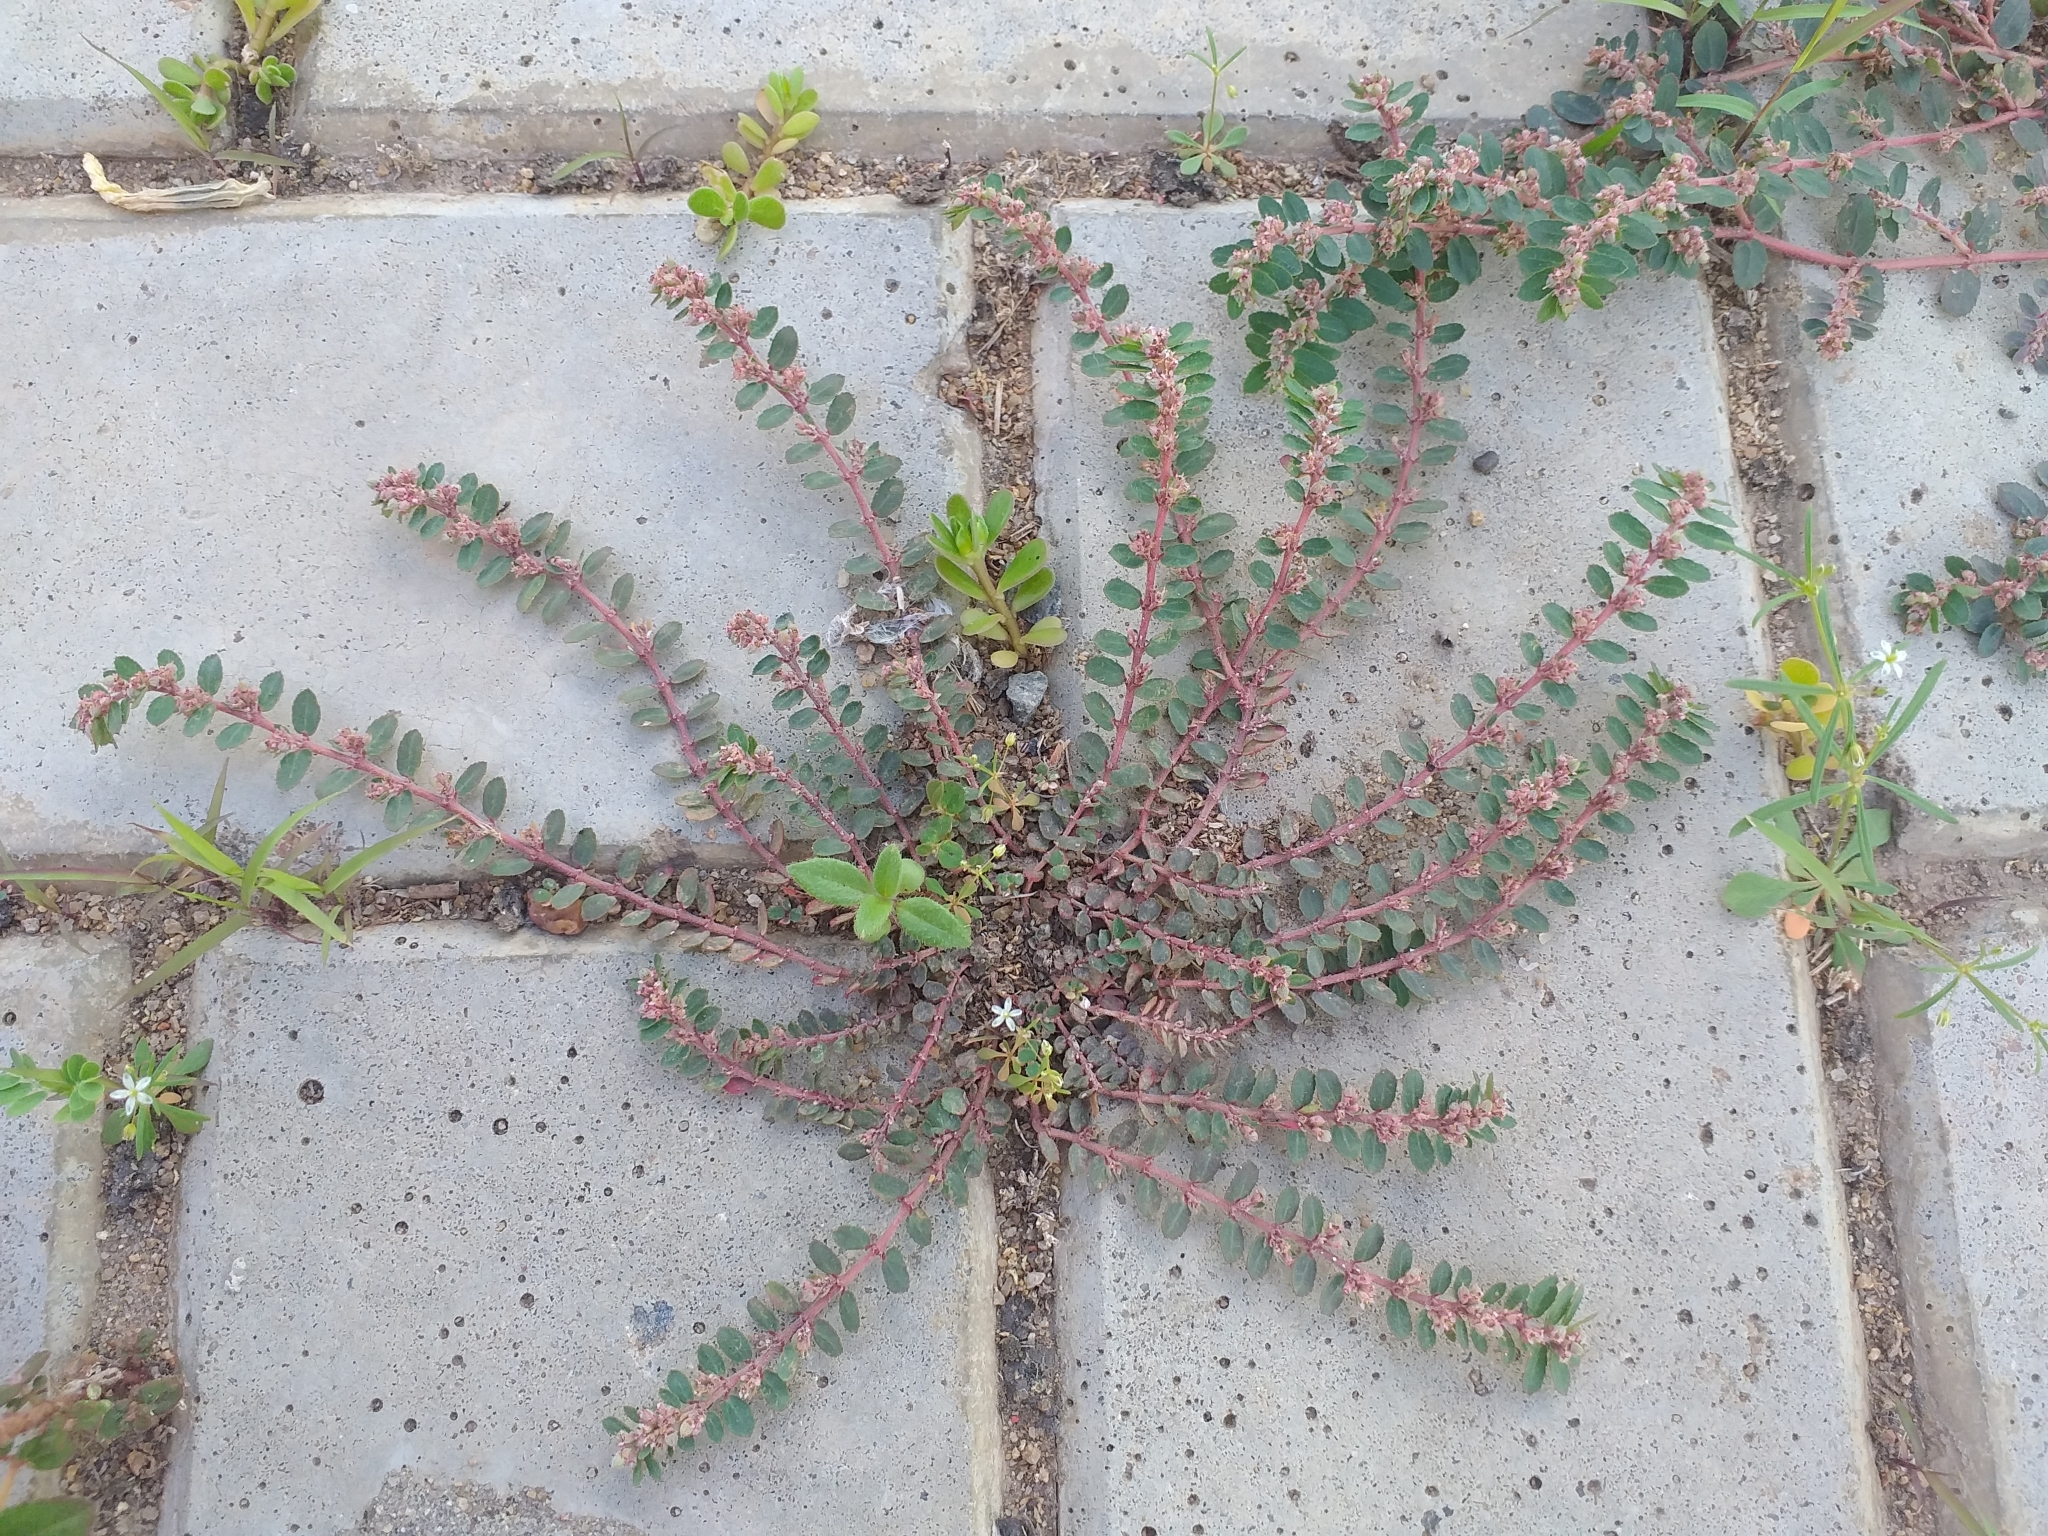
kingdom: Plantae
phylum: Tracheophyta
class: Magnoliopsida
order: Malpighiales
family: Euphorbiaceae
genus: Euphorbia
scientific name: Euphorbia dioeca
